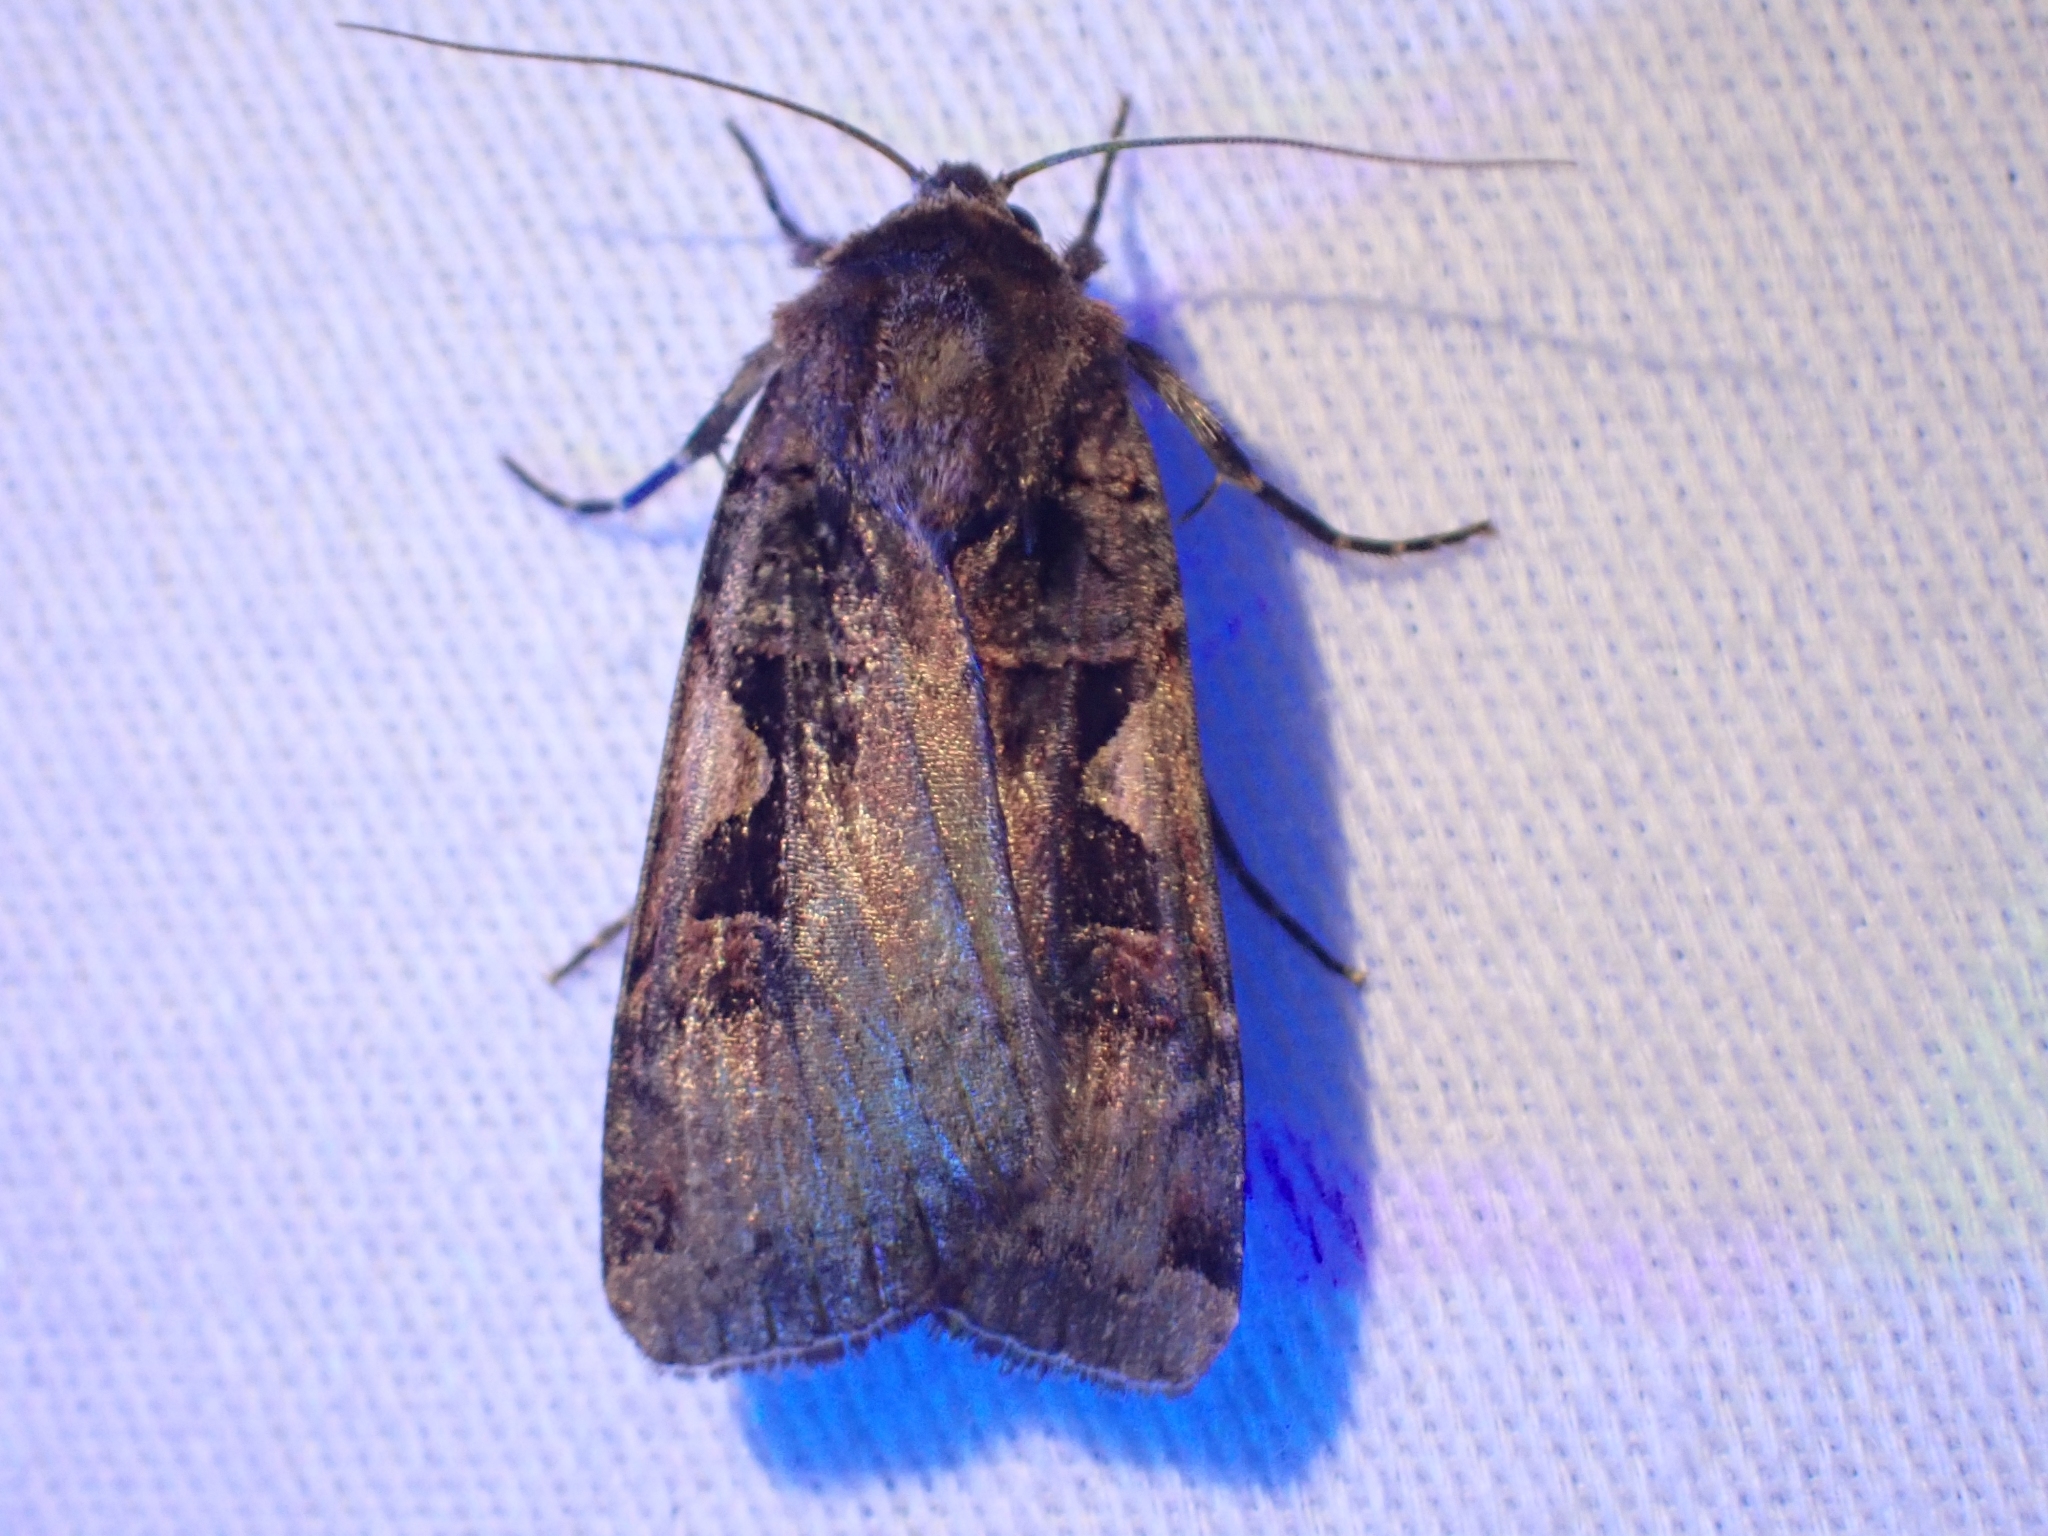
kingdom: Animalia
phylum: Arthropoda
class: Insecta
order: Lepidoptera
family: Noctuidae
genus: Xestia
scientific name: Xestia c-nigrum
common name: Setaceous hebrew character
